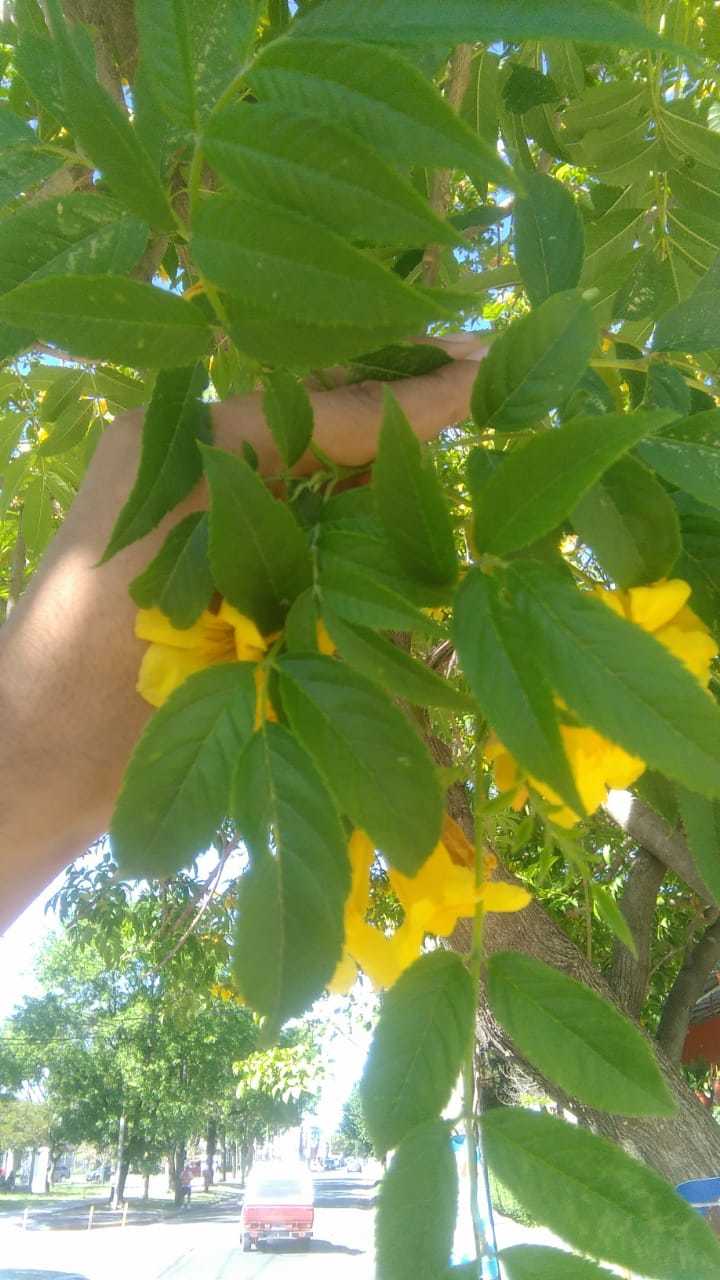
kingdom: Plantae
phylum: Tracheophyta
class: Magnoliopsida
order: Lamiales
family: Bignoniaceae
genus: Tecoma
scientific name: Tecoma stans
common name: Yellow trumpetbush
